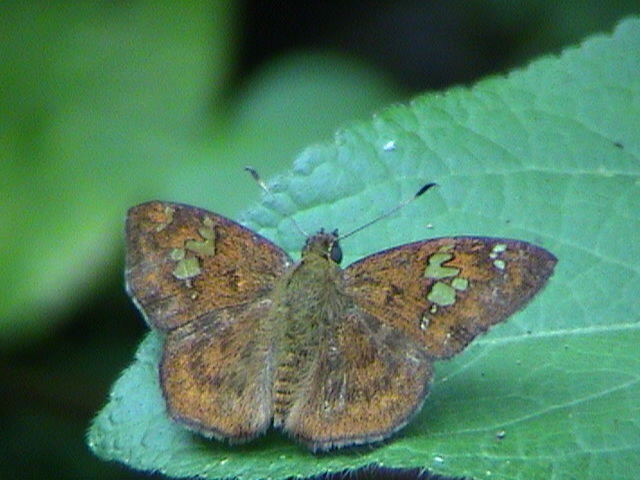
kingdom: Animalia
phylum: Arthropoda
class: Insecta
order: Lepidoptera
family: Hesperiidae
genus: Pseudocoladenia
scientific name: Pseudocoladenia dan
